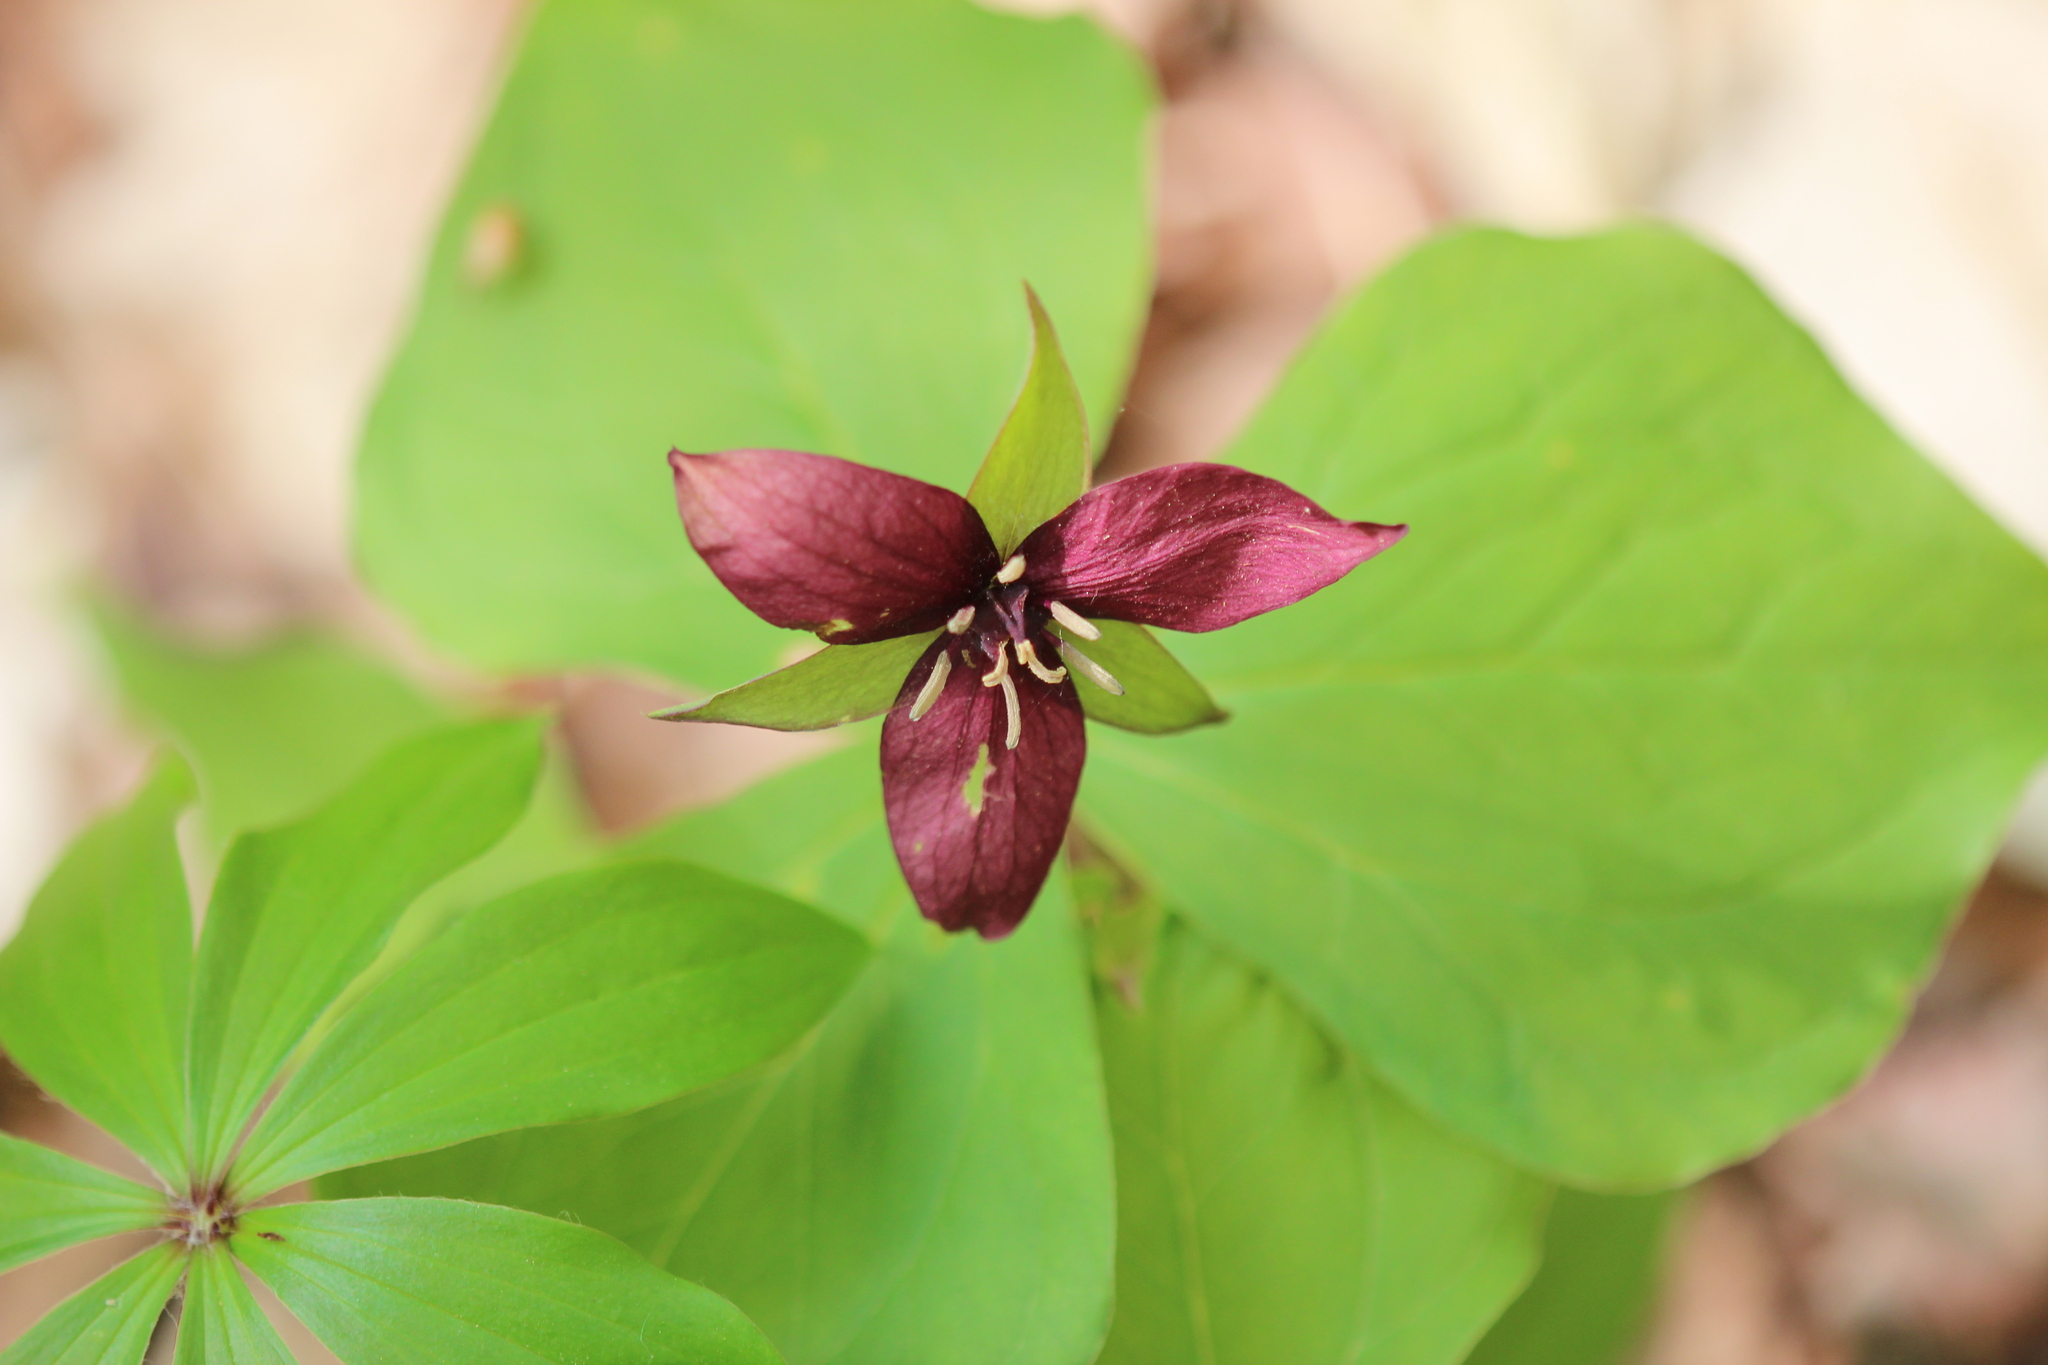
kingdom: Plantae
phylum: Tracheophyta
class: Liliopsida
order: Liliales
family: Melanthiaceae
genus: Trillium
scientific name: Trillium erectum
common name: Purple trillium
